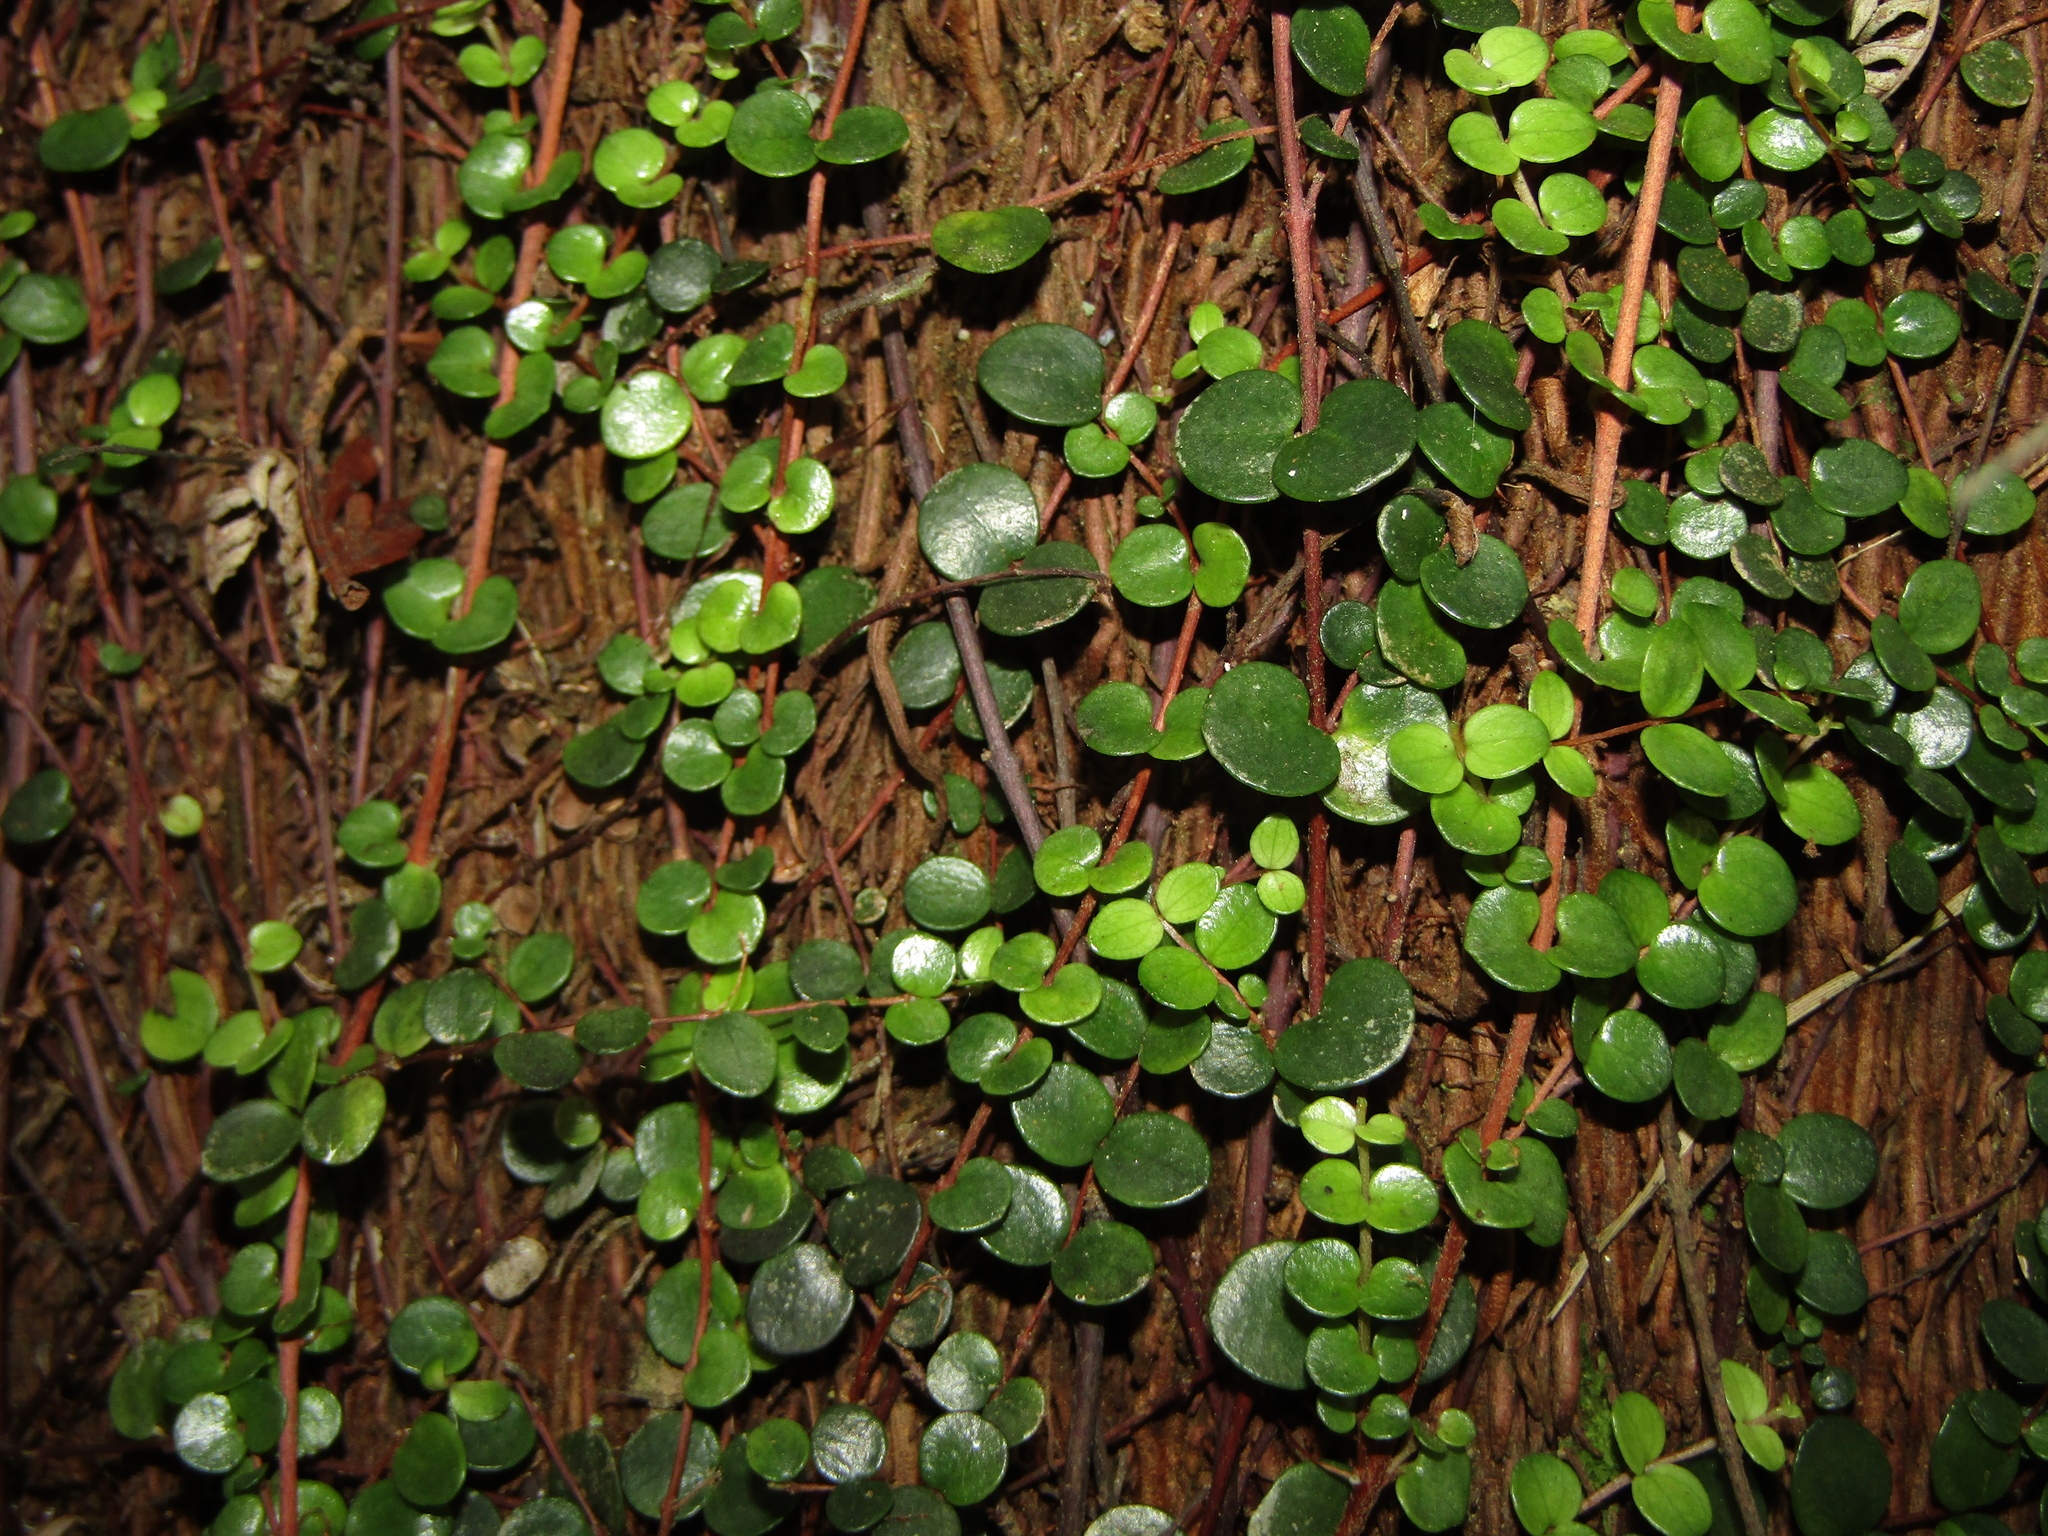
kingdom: Plantae
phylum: Tracheophyta
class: Magnoliopsida
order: Myrtales
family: Myrtaceae
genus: Metrosideros
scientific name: Metrosideros perforata
